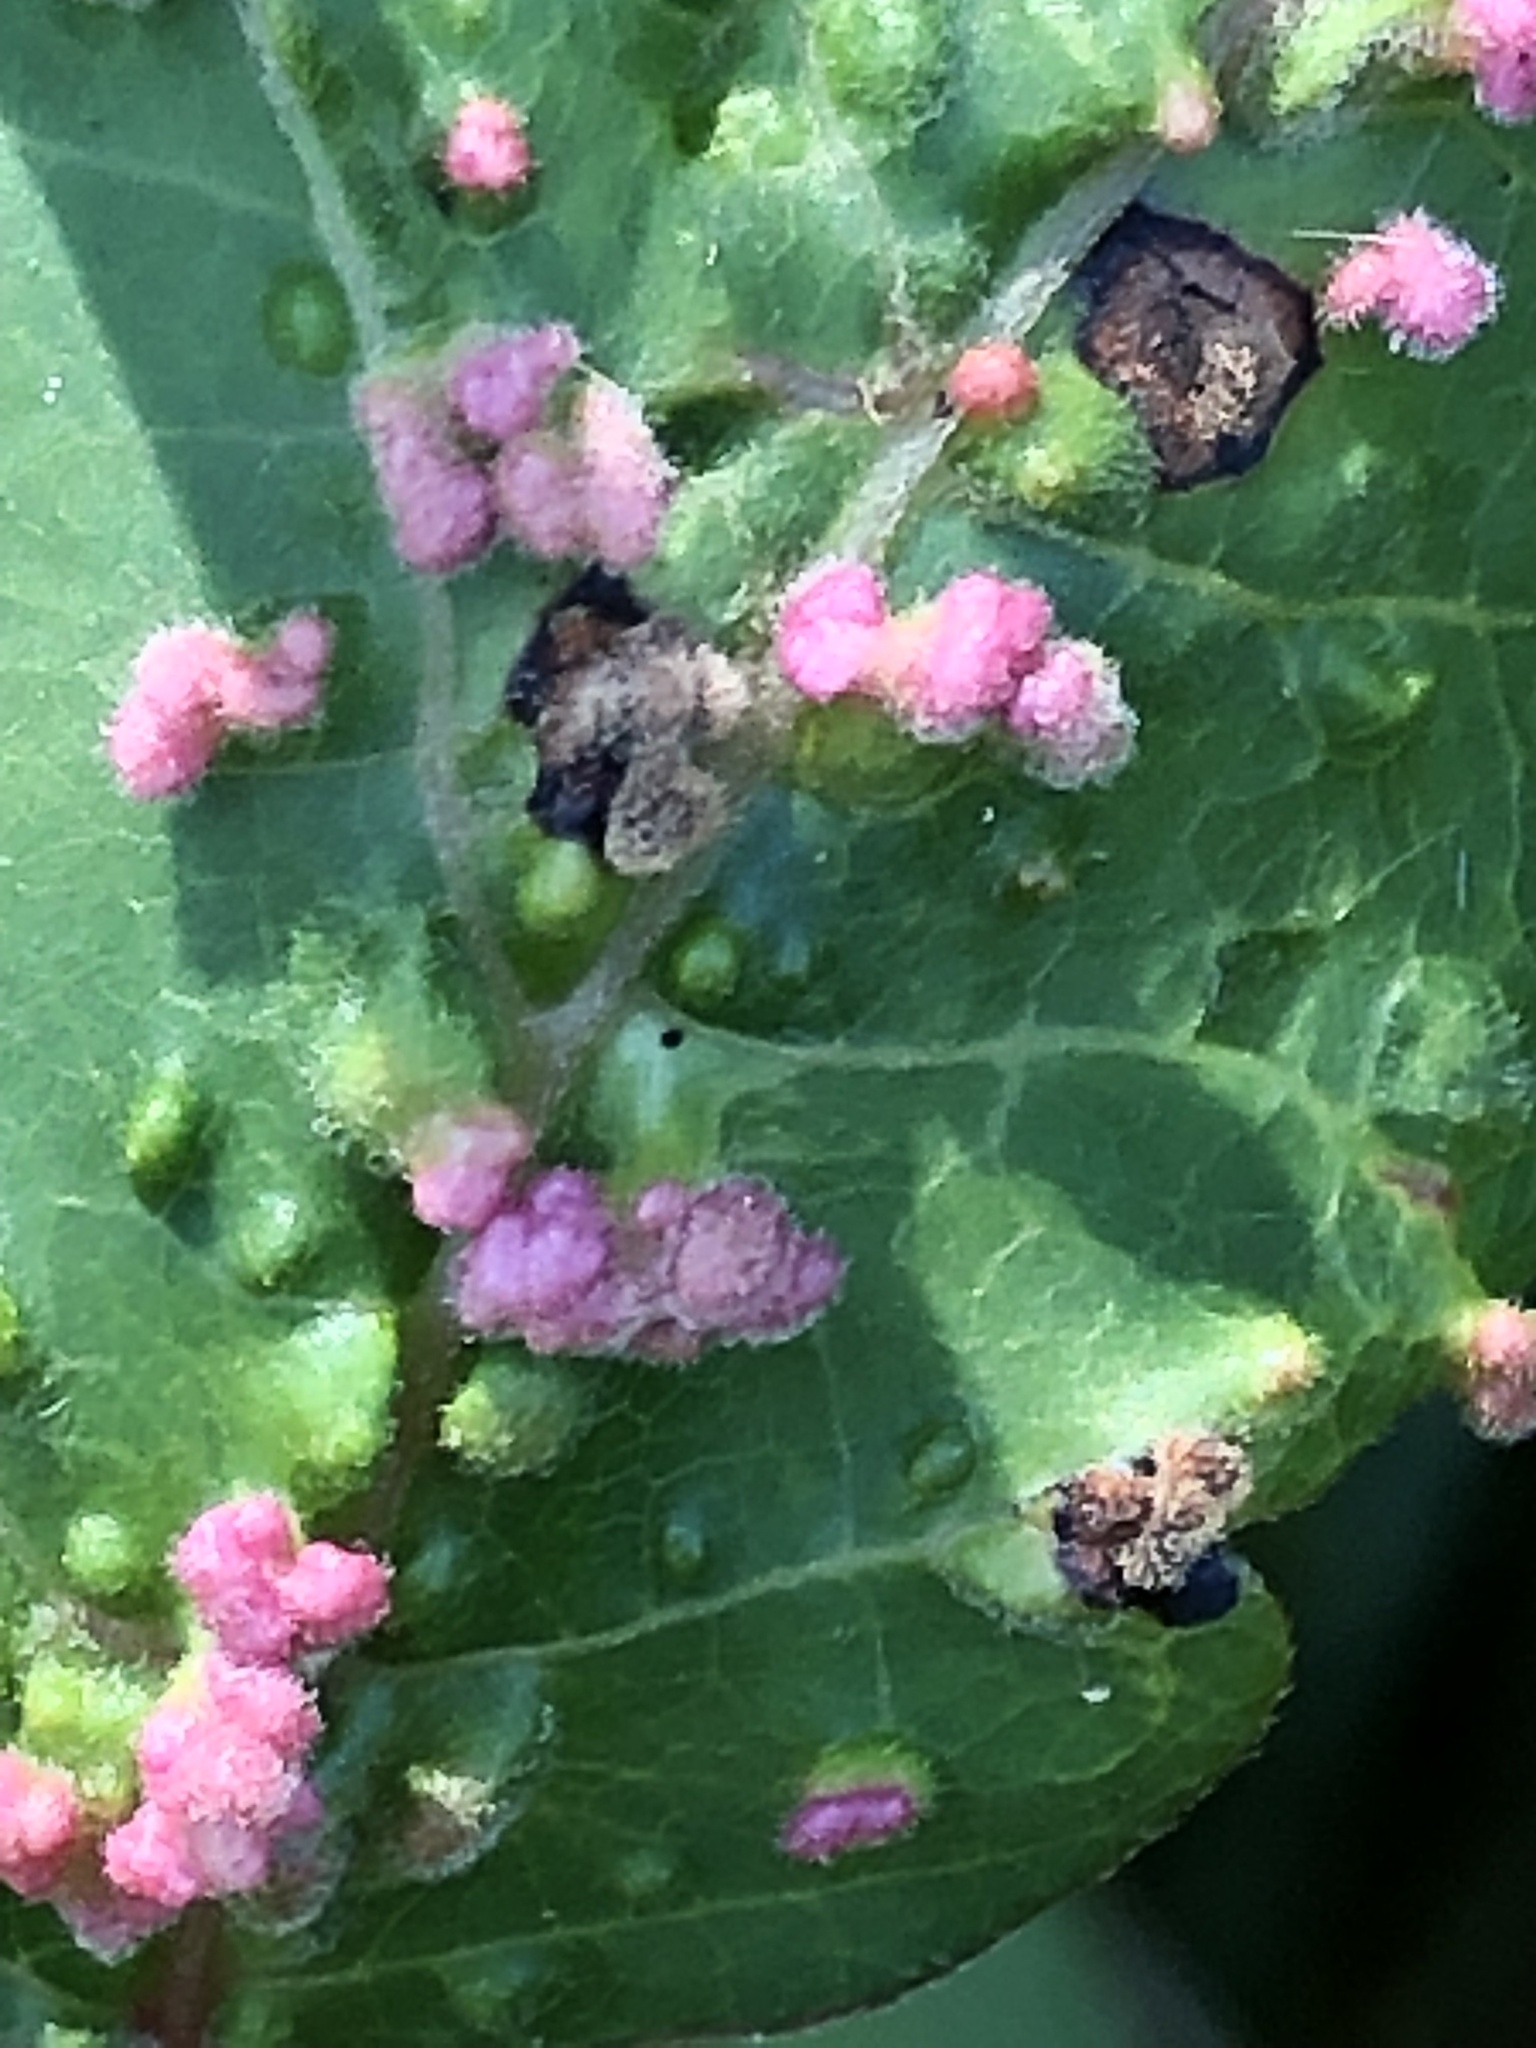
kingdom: Animalia
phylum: Arthropoda
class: Arachnida
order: Trombidiformes
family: Eriophyidae
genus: Aculops
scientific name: Aculops
